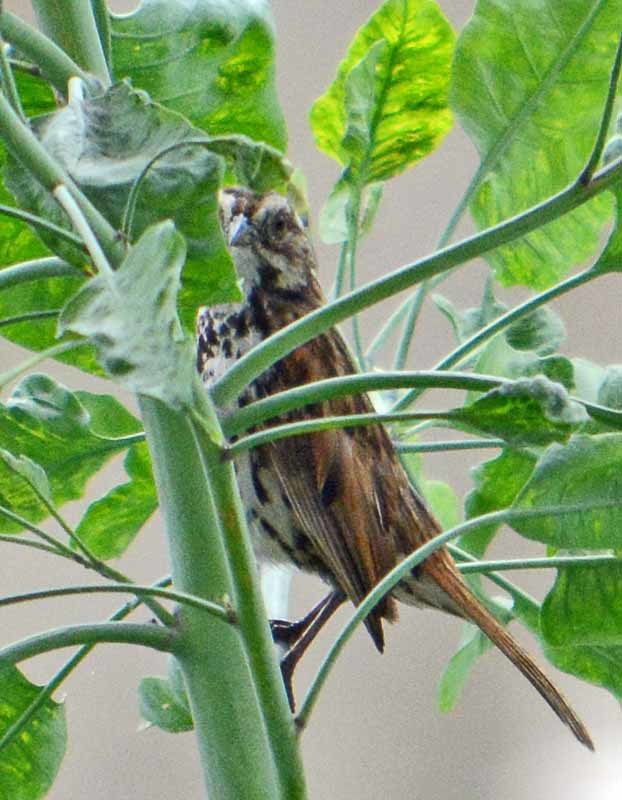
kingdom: Animalia
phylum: Chordata
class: Aves
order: Passeriformes
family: Passerellidae
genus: Melospiza
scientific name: Melospiza melodia
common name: Song sparrow
